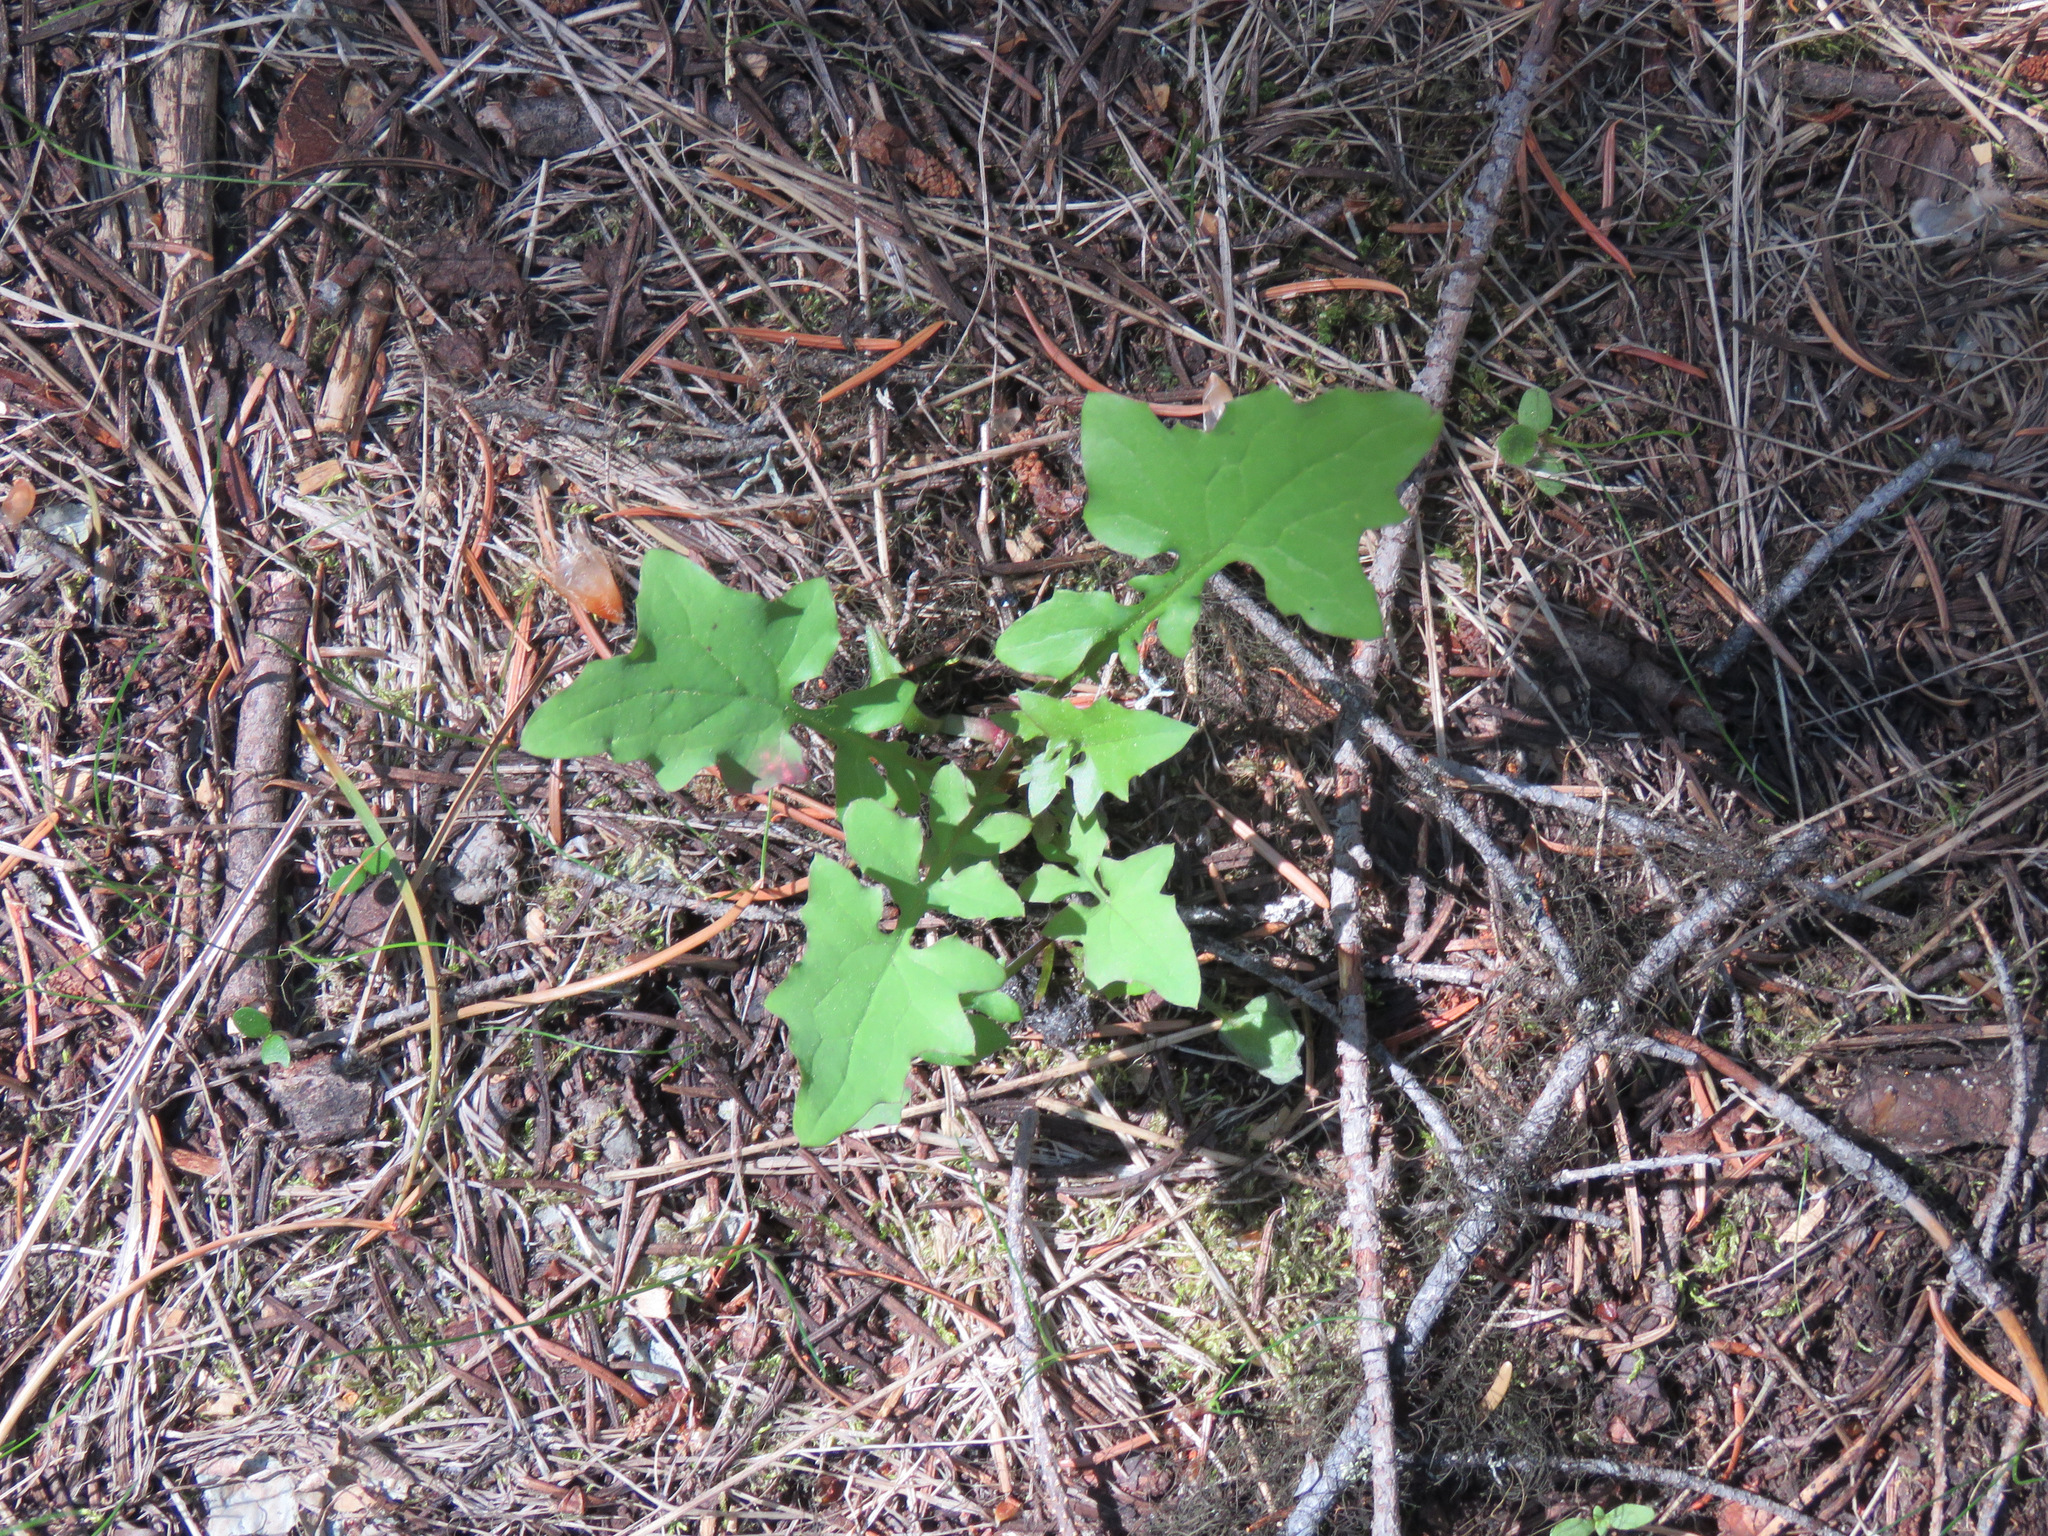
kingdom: Plantae
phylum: Tracheophyta
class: Magnoliopsida
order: Asterales
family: Asteraceae
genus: Mycelis
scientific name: Mycelis muralis
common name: Wall lettuce
